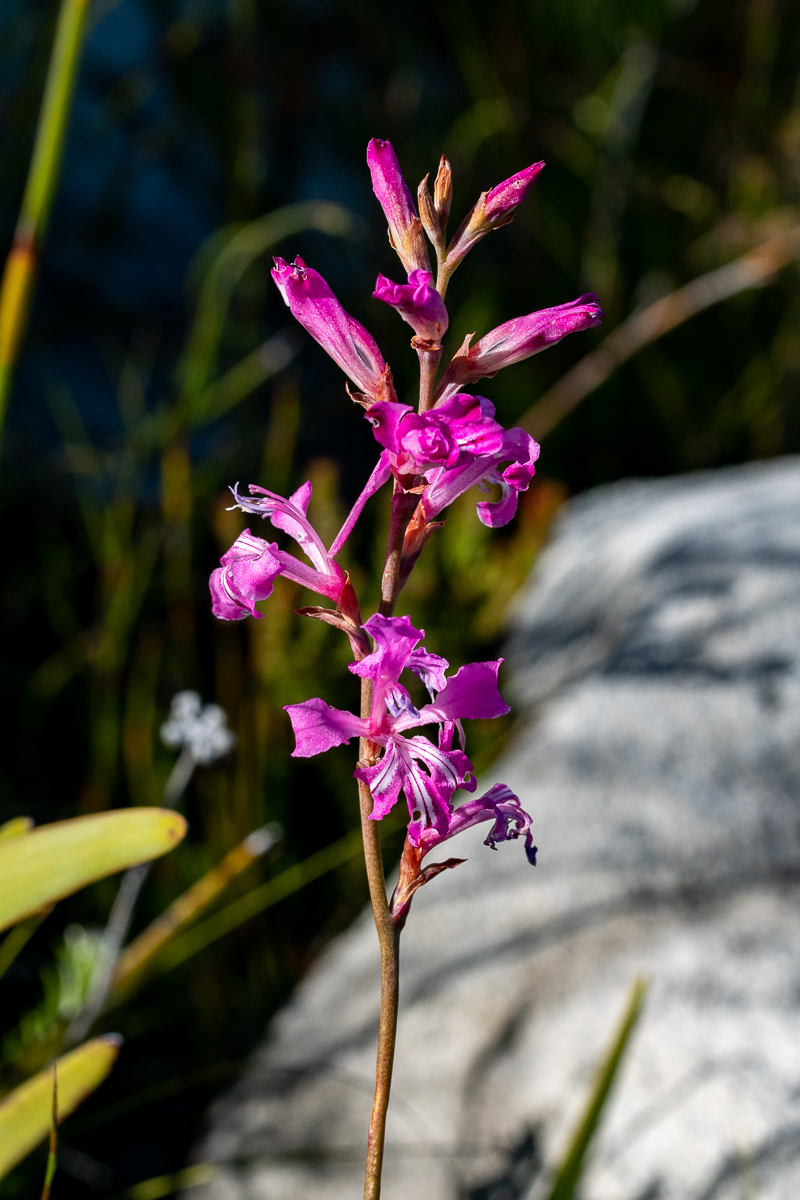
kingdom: Plantae
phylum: Tracheophyta
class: Liliopsida
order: Asparagales
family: Iridaceae
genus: Tritoniopsis
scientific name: Tritoniopsis lata
